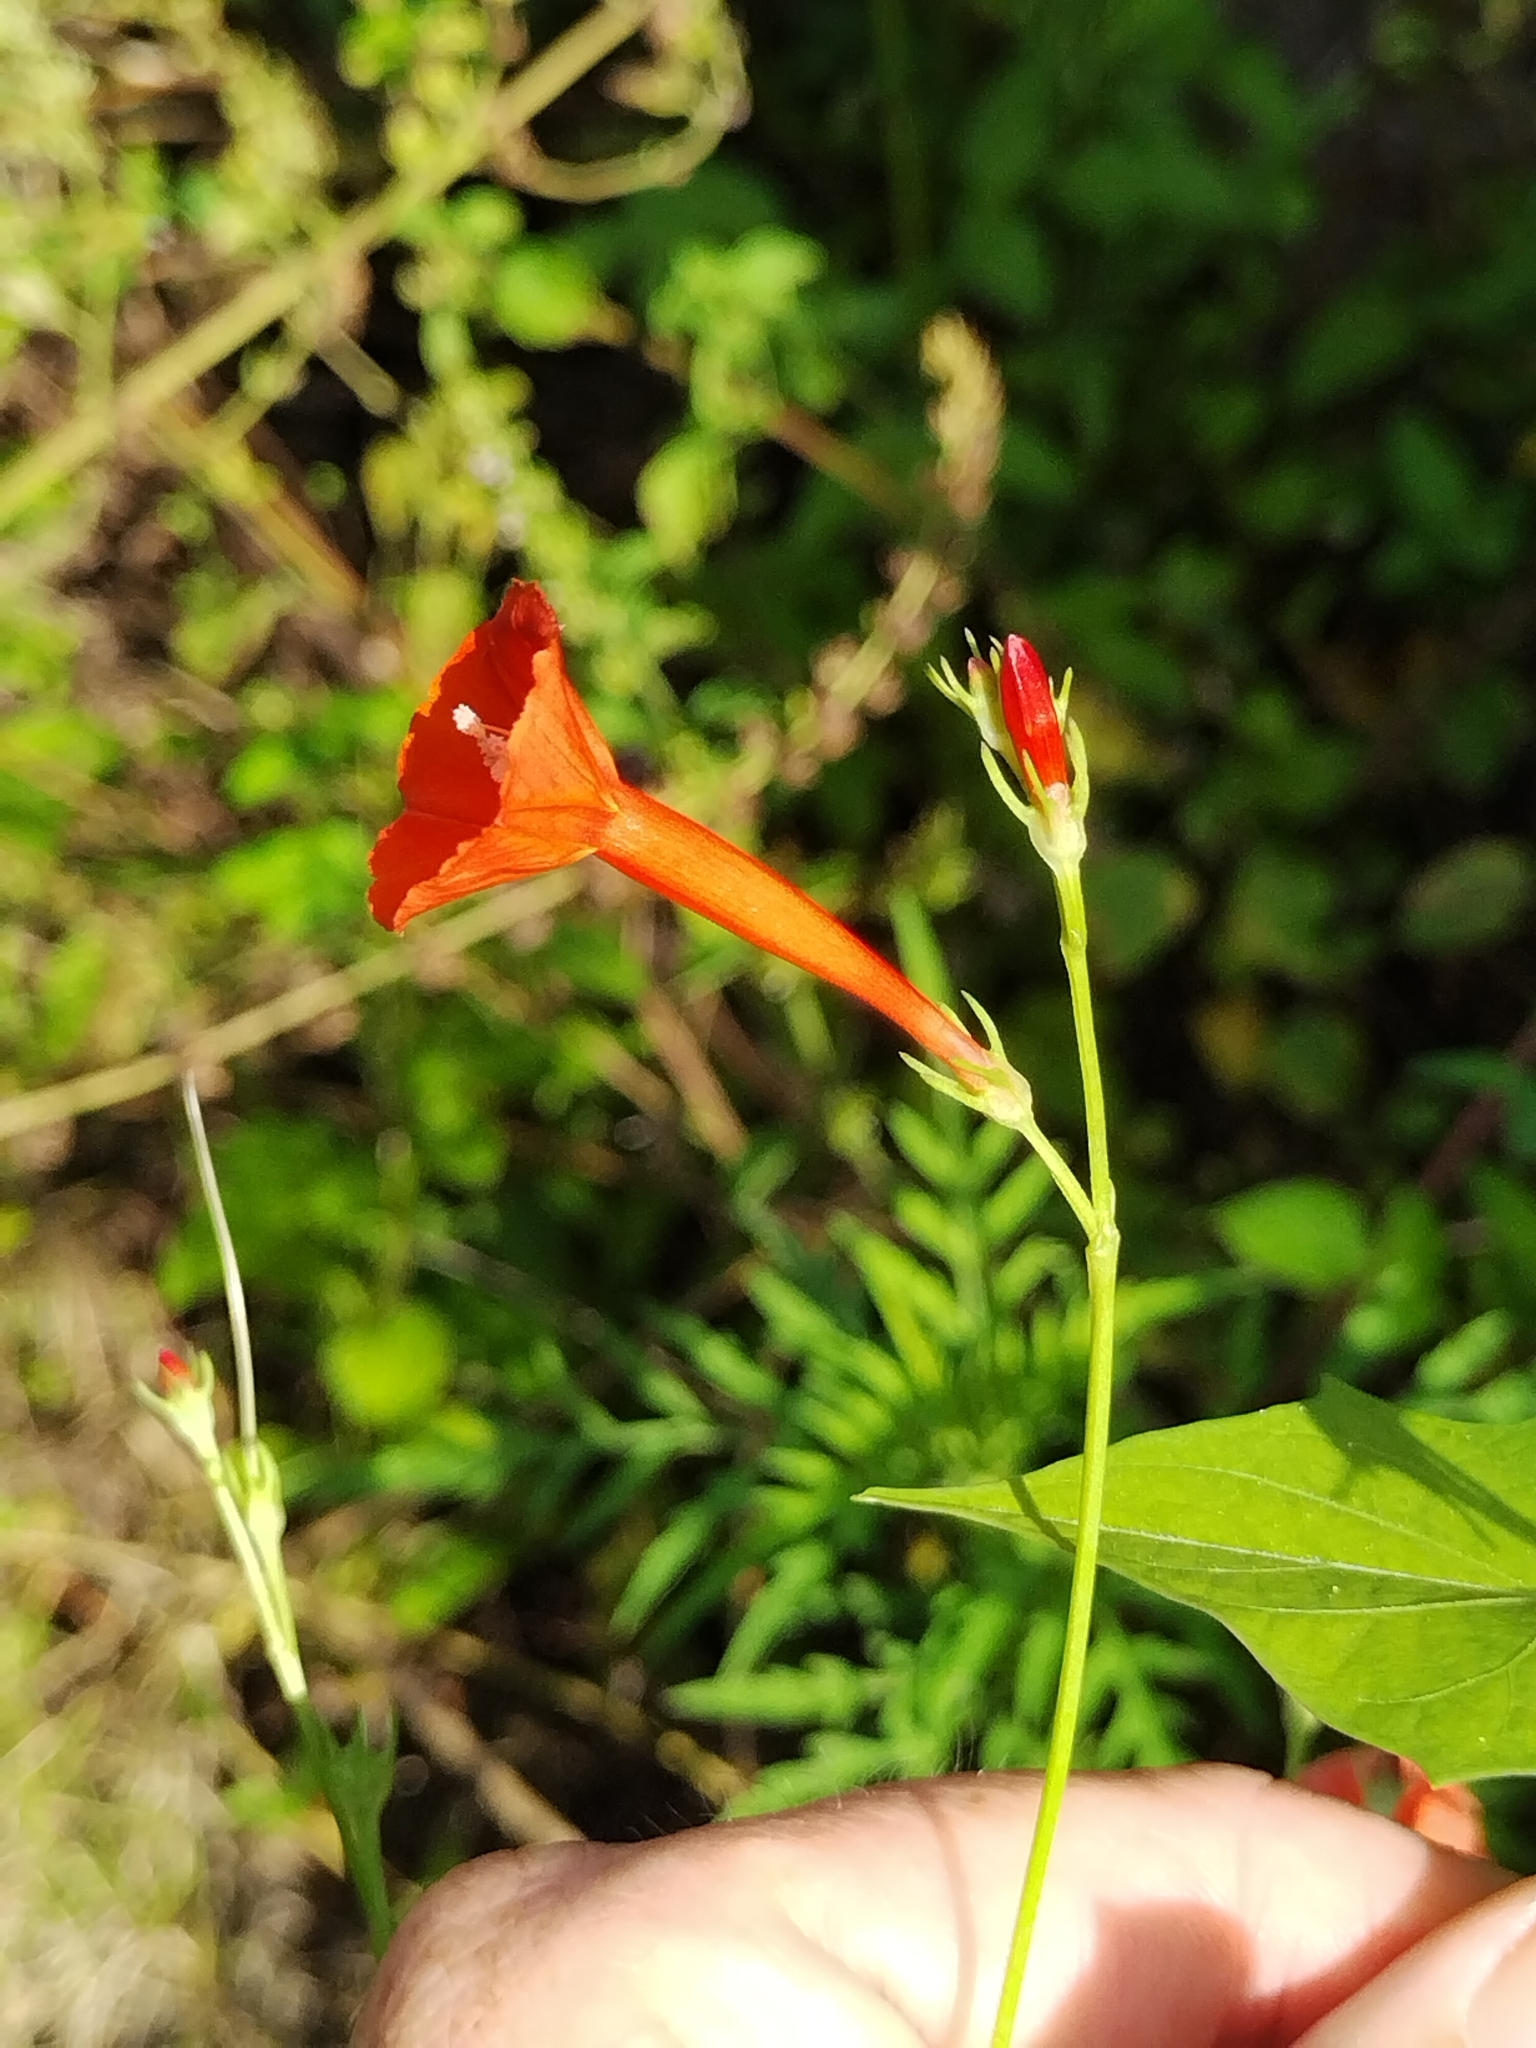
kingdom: Plantae
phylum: Tracheophyta
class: Magnoliopsida
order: Solanales
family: Convolvulaceae
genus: Ipomoea
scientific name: Ipomoea hederifolia
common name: Ivy-leaf morning-glory
